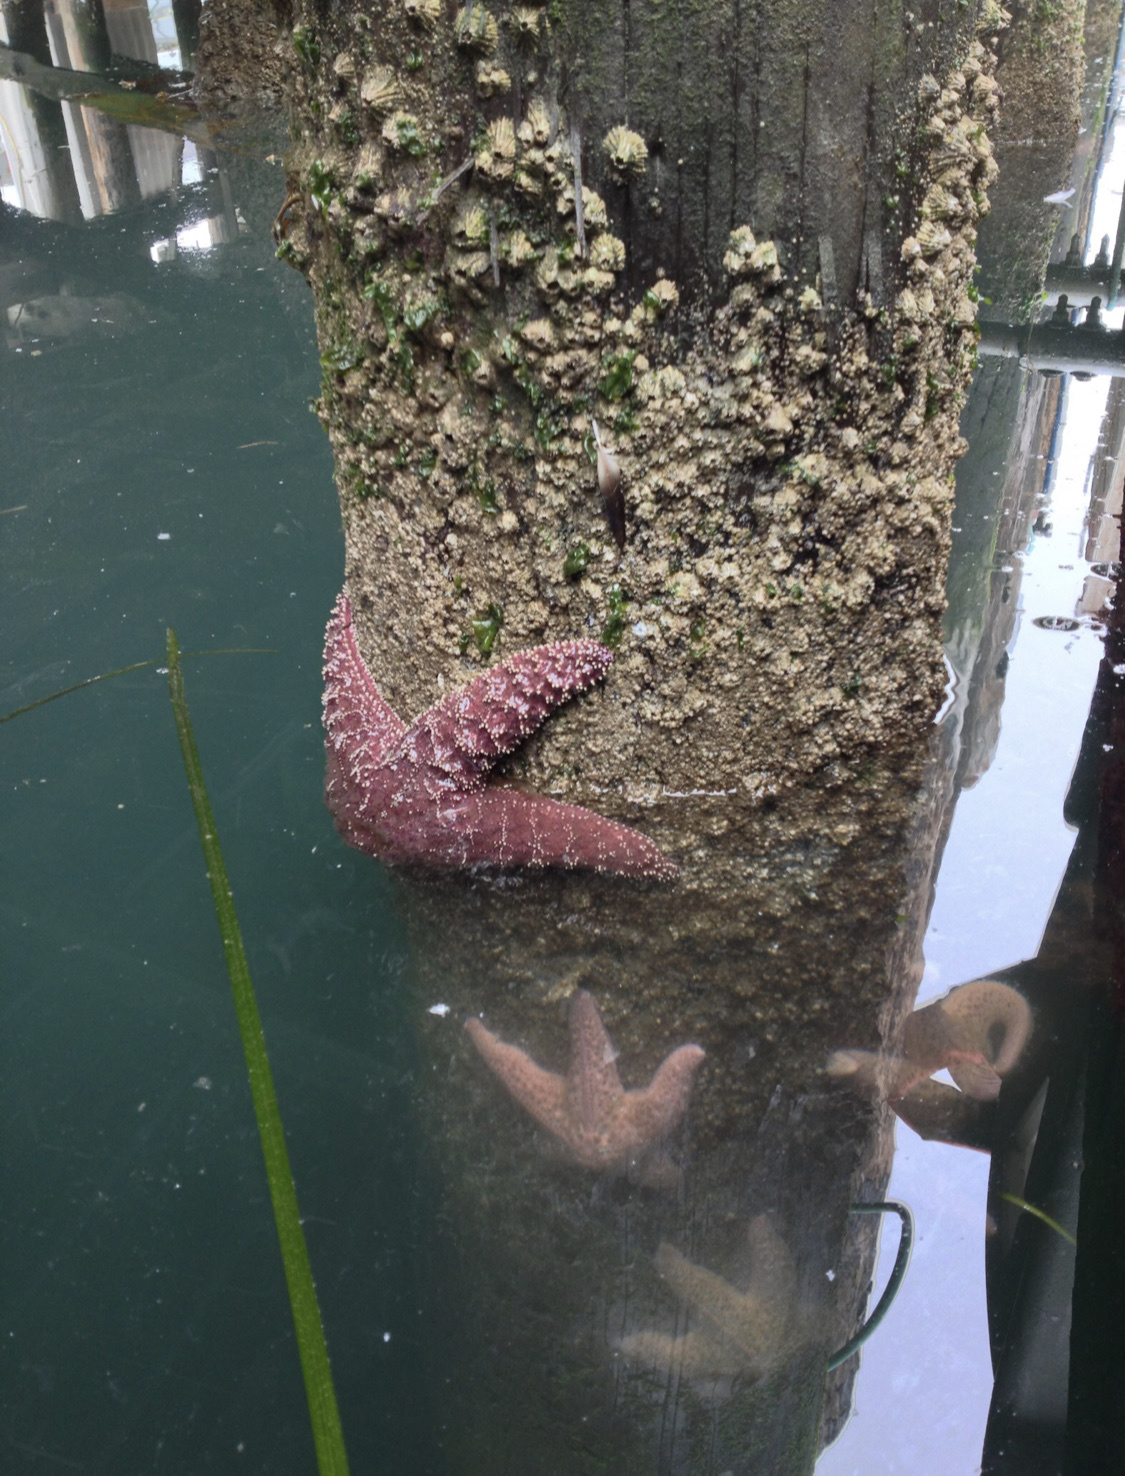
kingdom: Animalia
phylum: Echinodermata
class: Asteroidea
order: Forcipulatida
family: Asteriidae
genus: Pisaster
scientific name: Pisaster ochraceus
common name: Ochre stars
